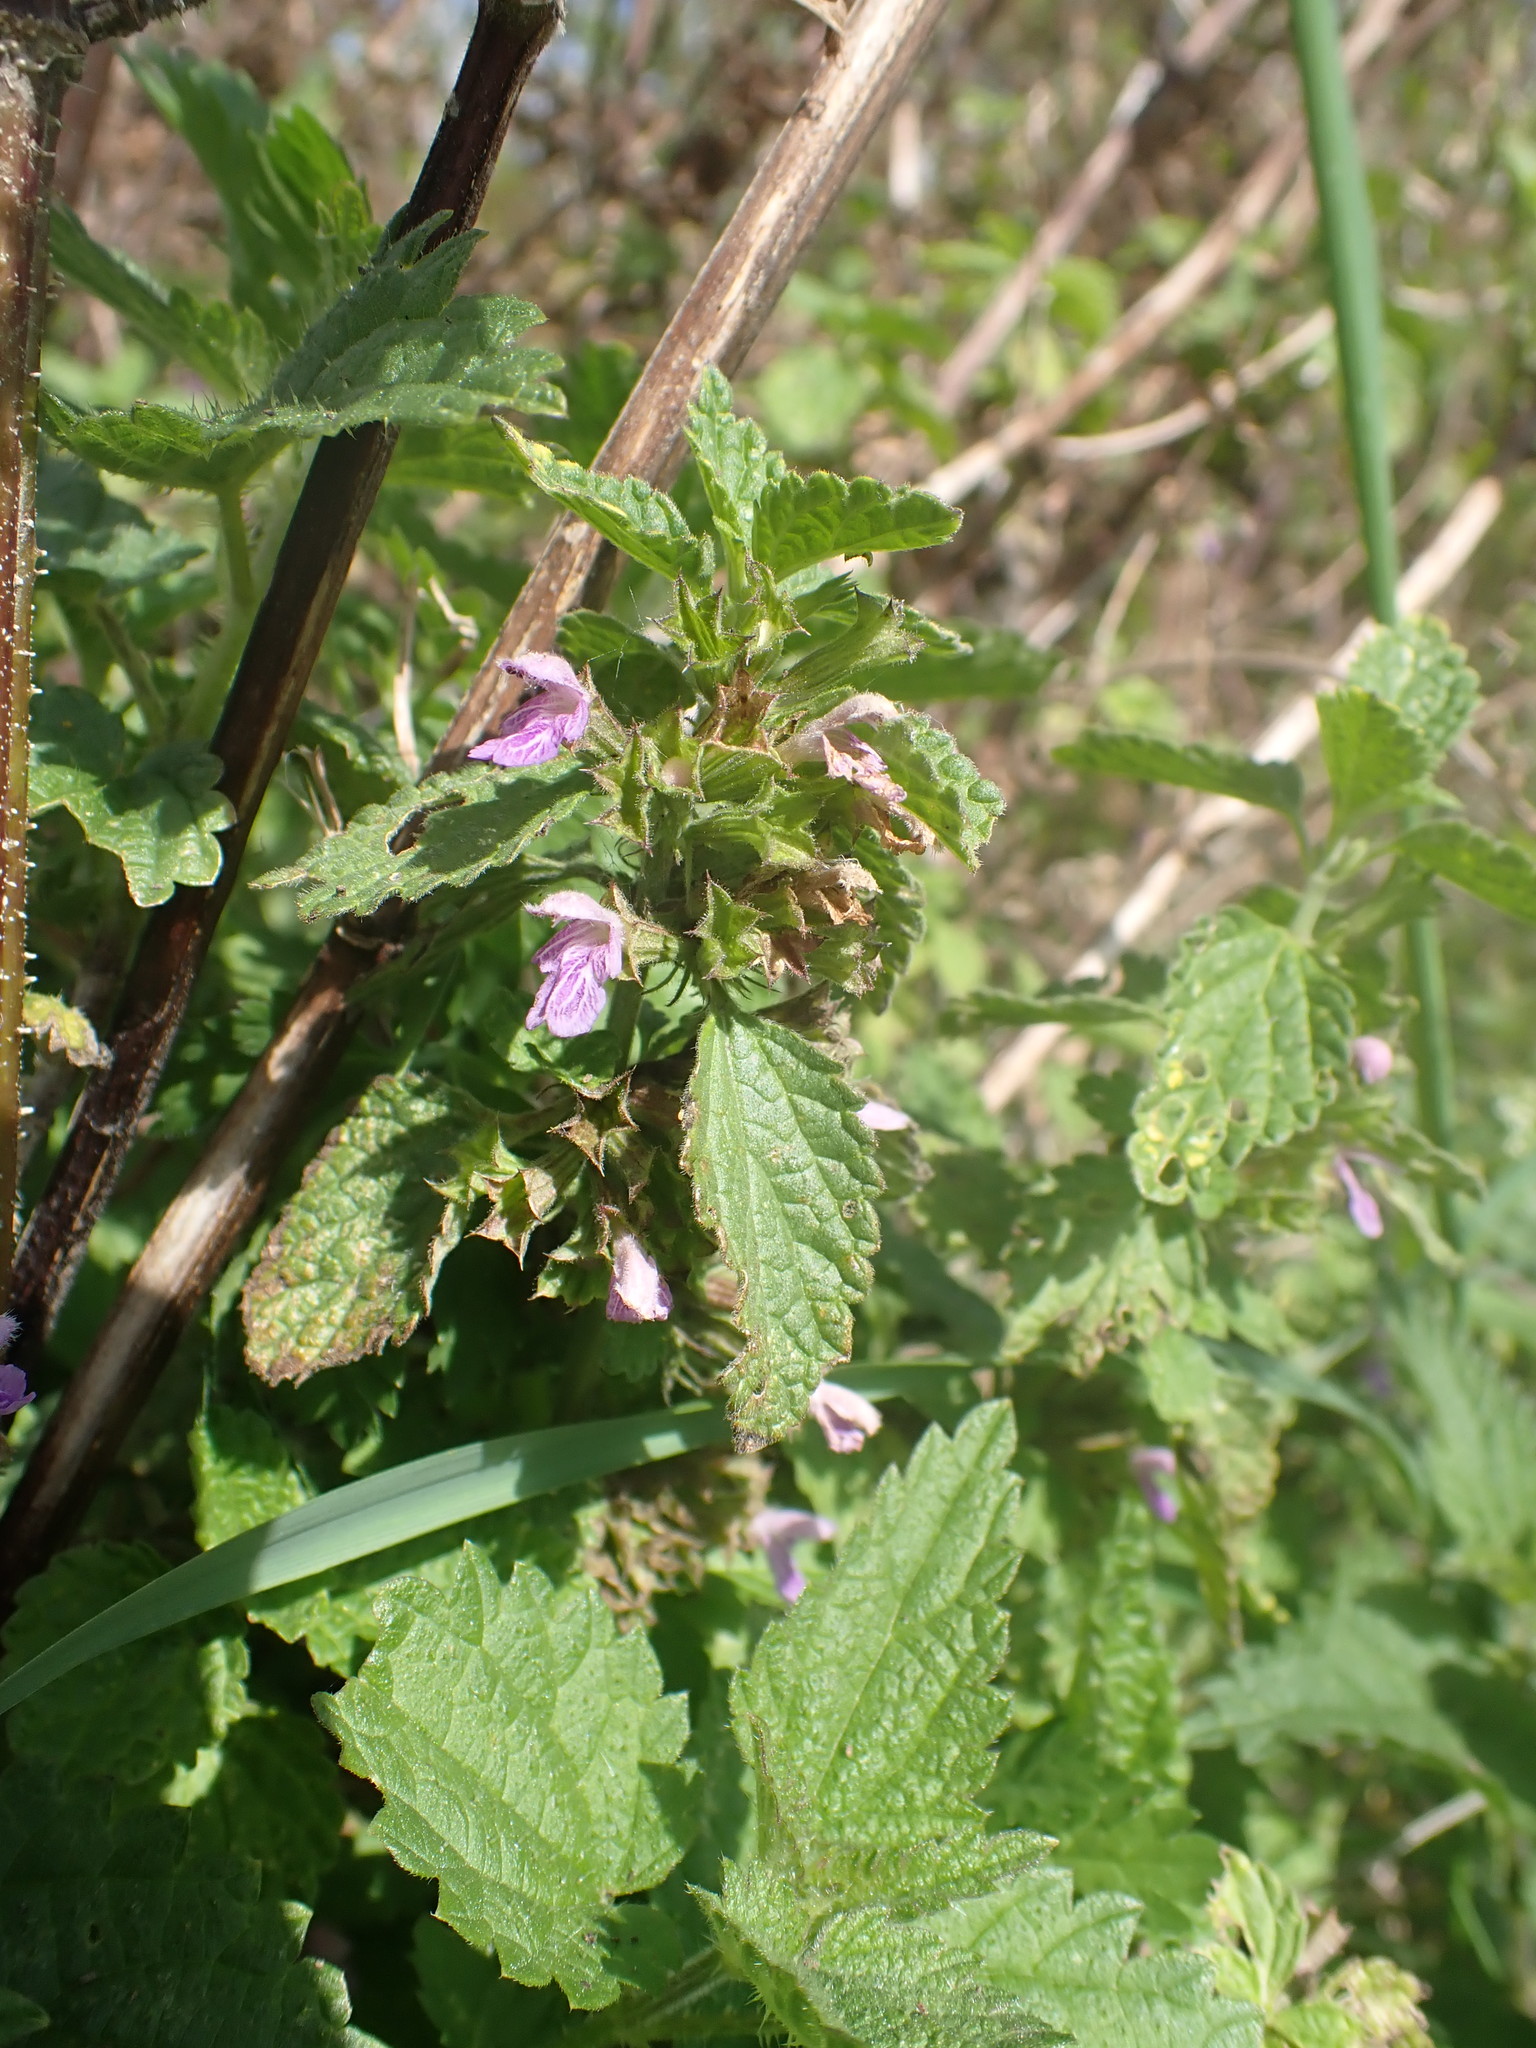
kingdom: Plantae
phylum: Tracheophyta
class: Magnoliopsida
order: Lamiales
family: Lamiaceae
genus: Ballota
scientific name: Ballota nigra
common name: Black horehound
